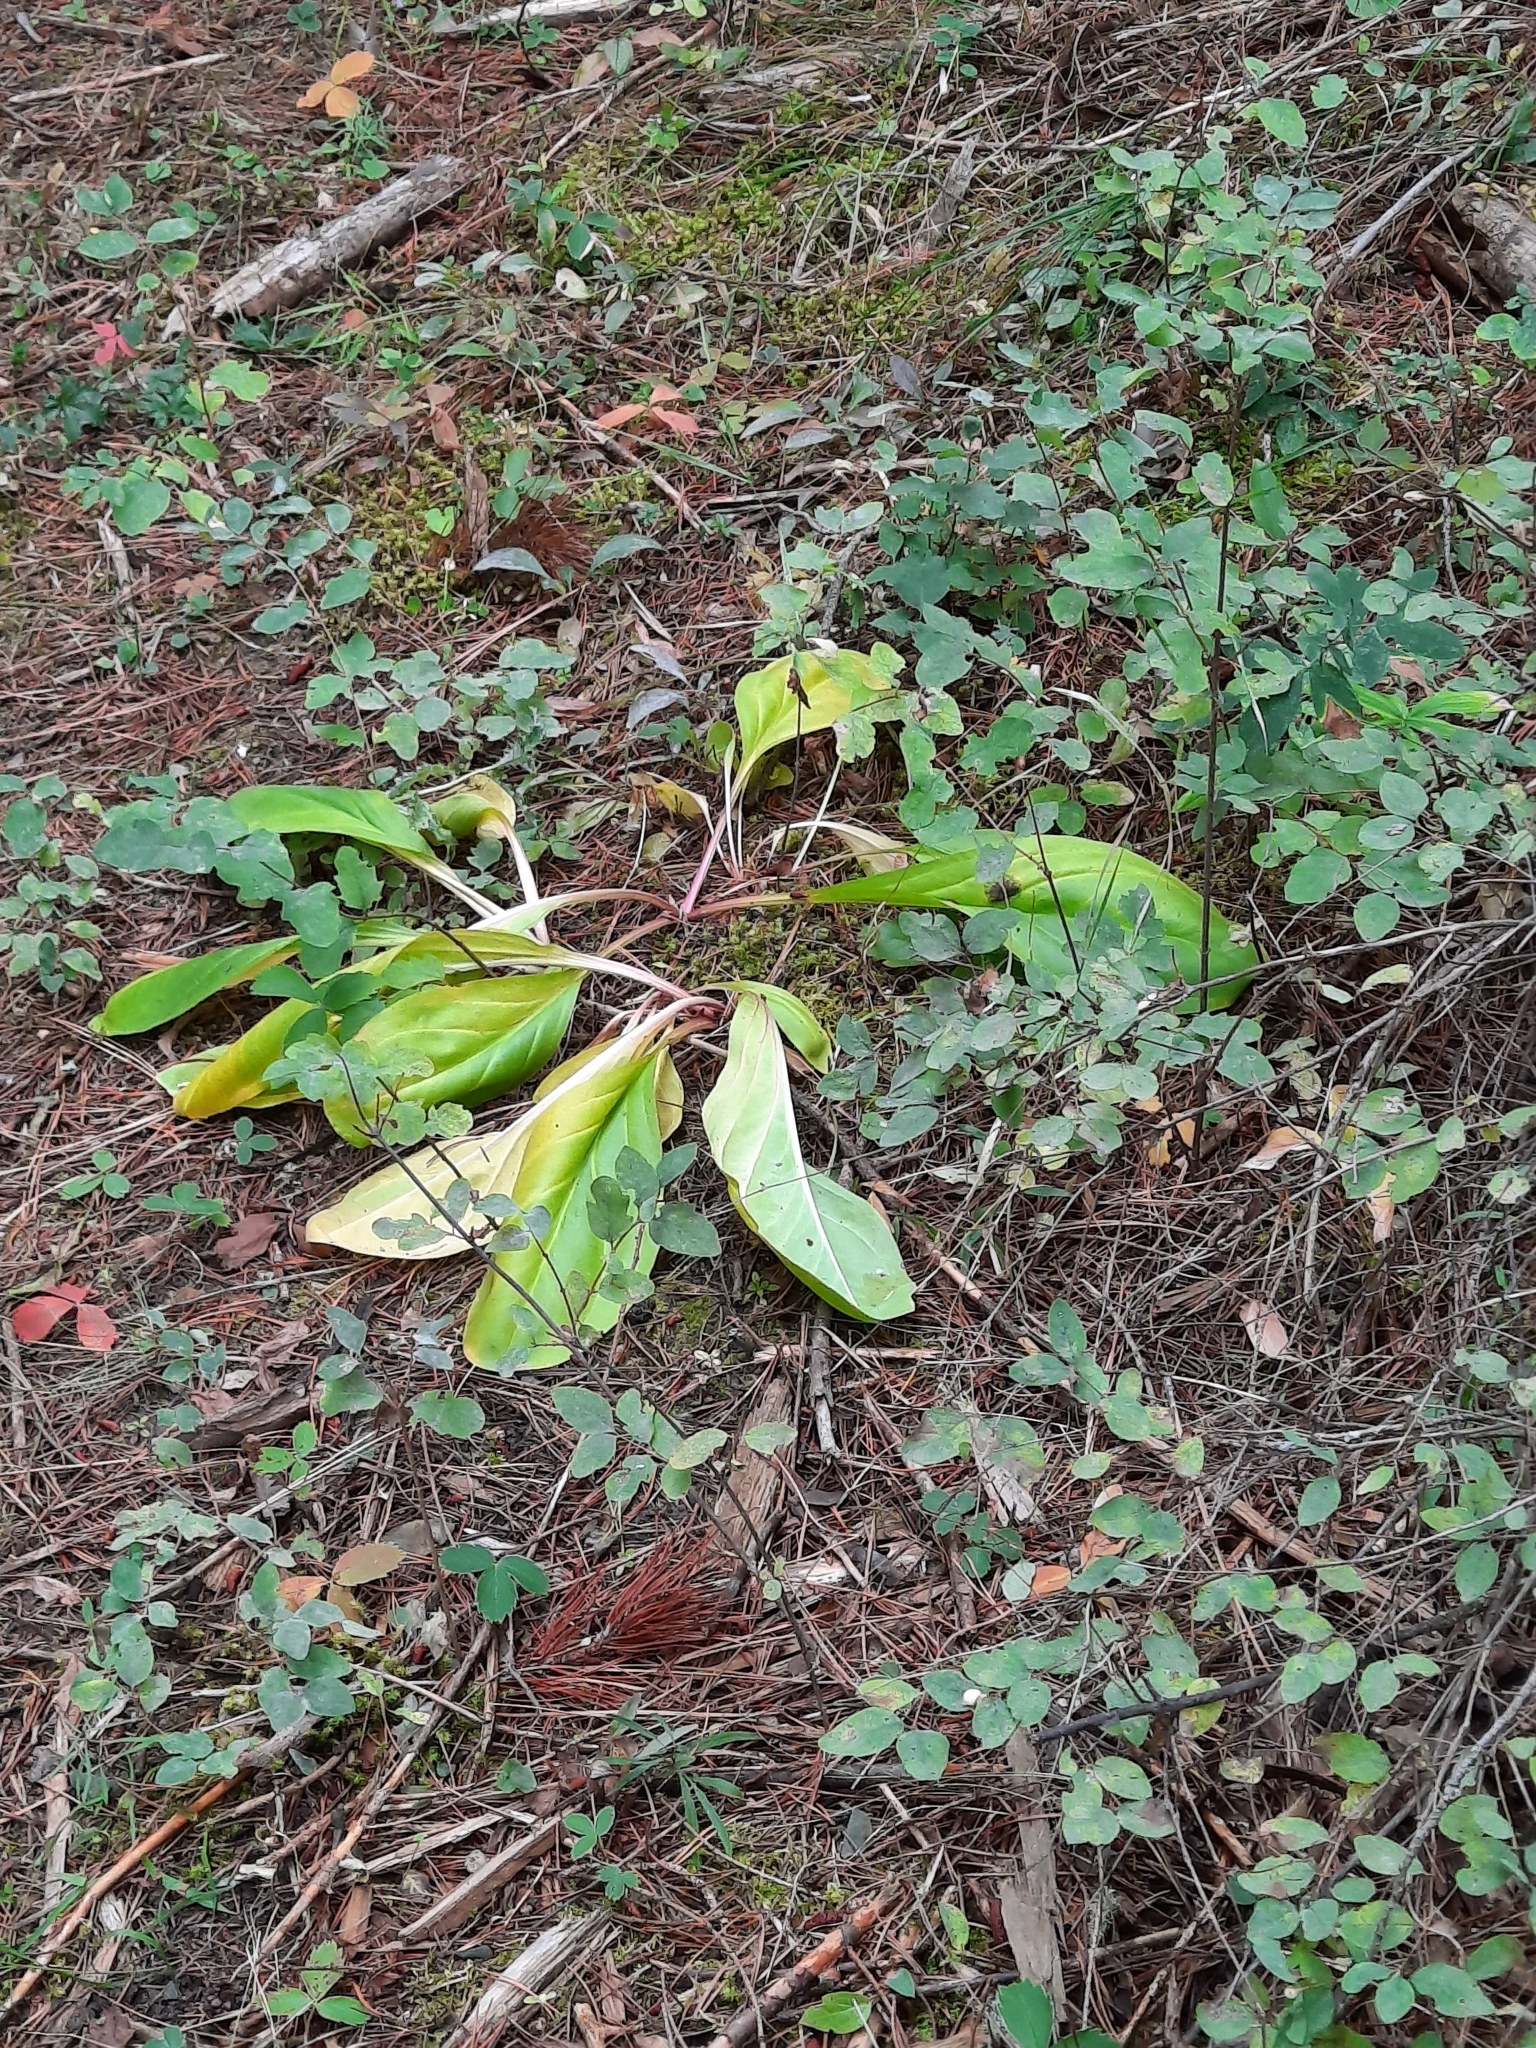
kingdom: Plantae
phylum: Tracheophyta
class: Magnoliopsida
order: Gentianales
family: Gentianaceae
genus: Frasera
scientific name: Frasera fastigiata
